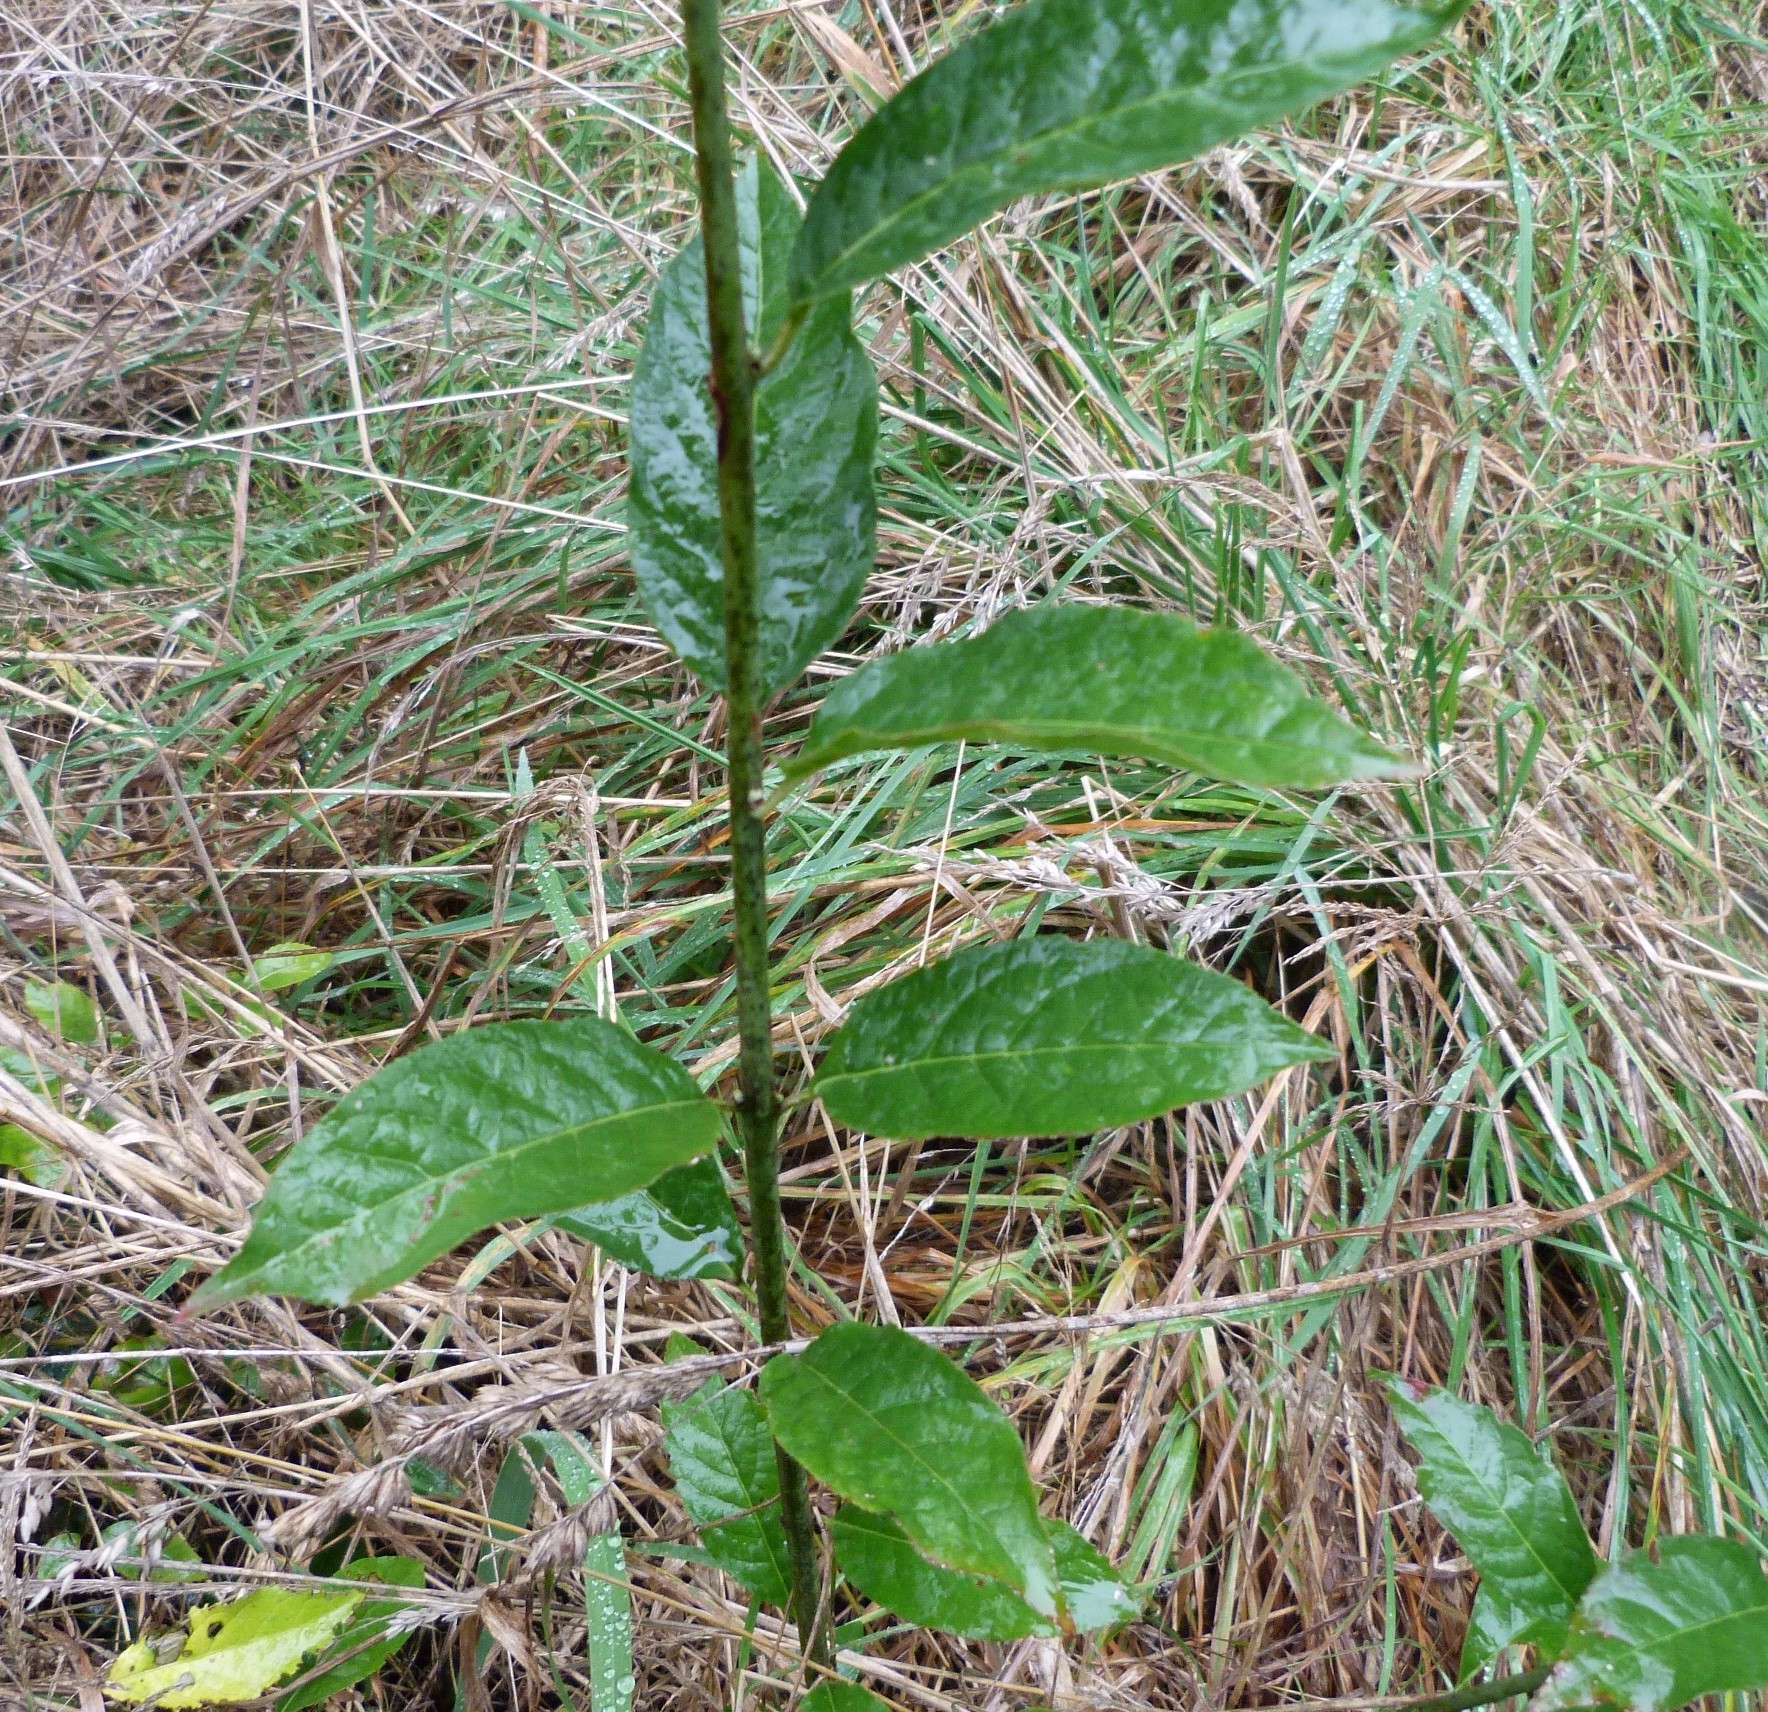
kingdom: Plantae
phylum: Tracheophyta
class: Magnoliopsida
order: Celastrales
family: Celastraceae
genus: Euonymus
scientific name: Euonymus europaeus
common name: Spindle
